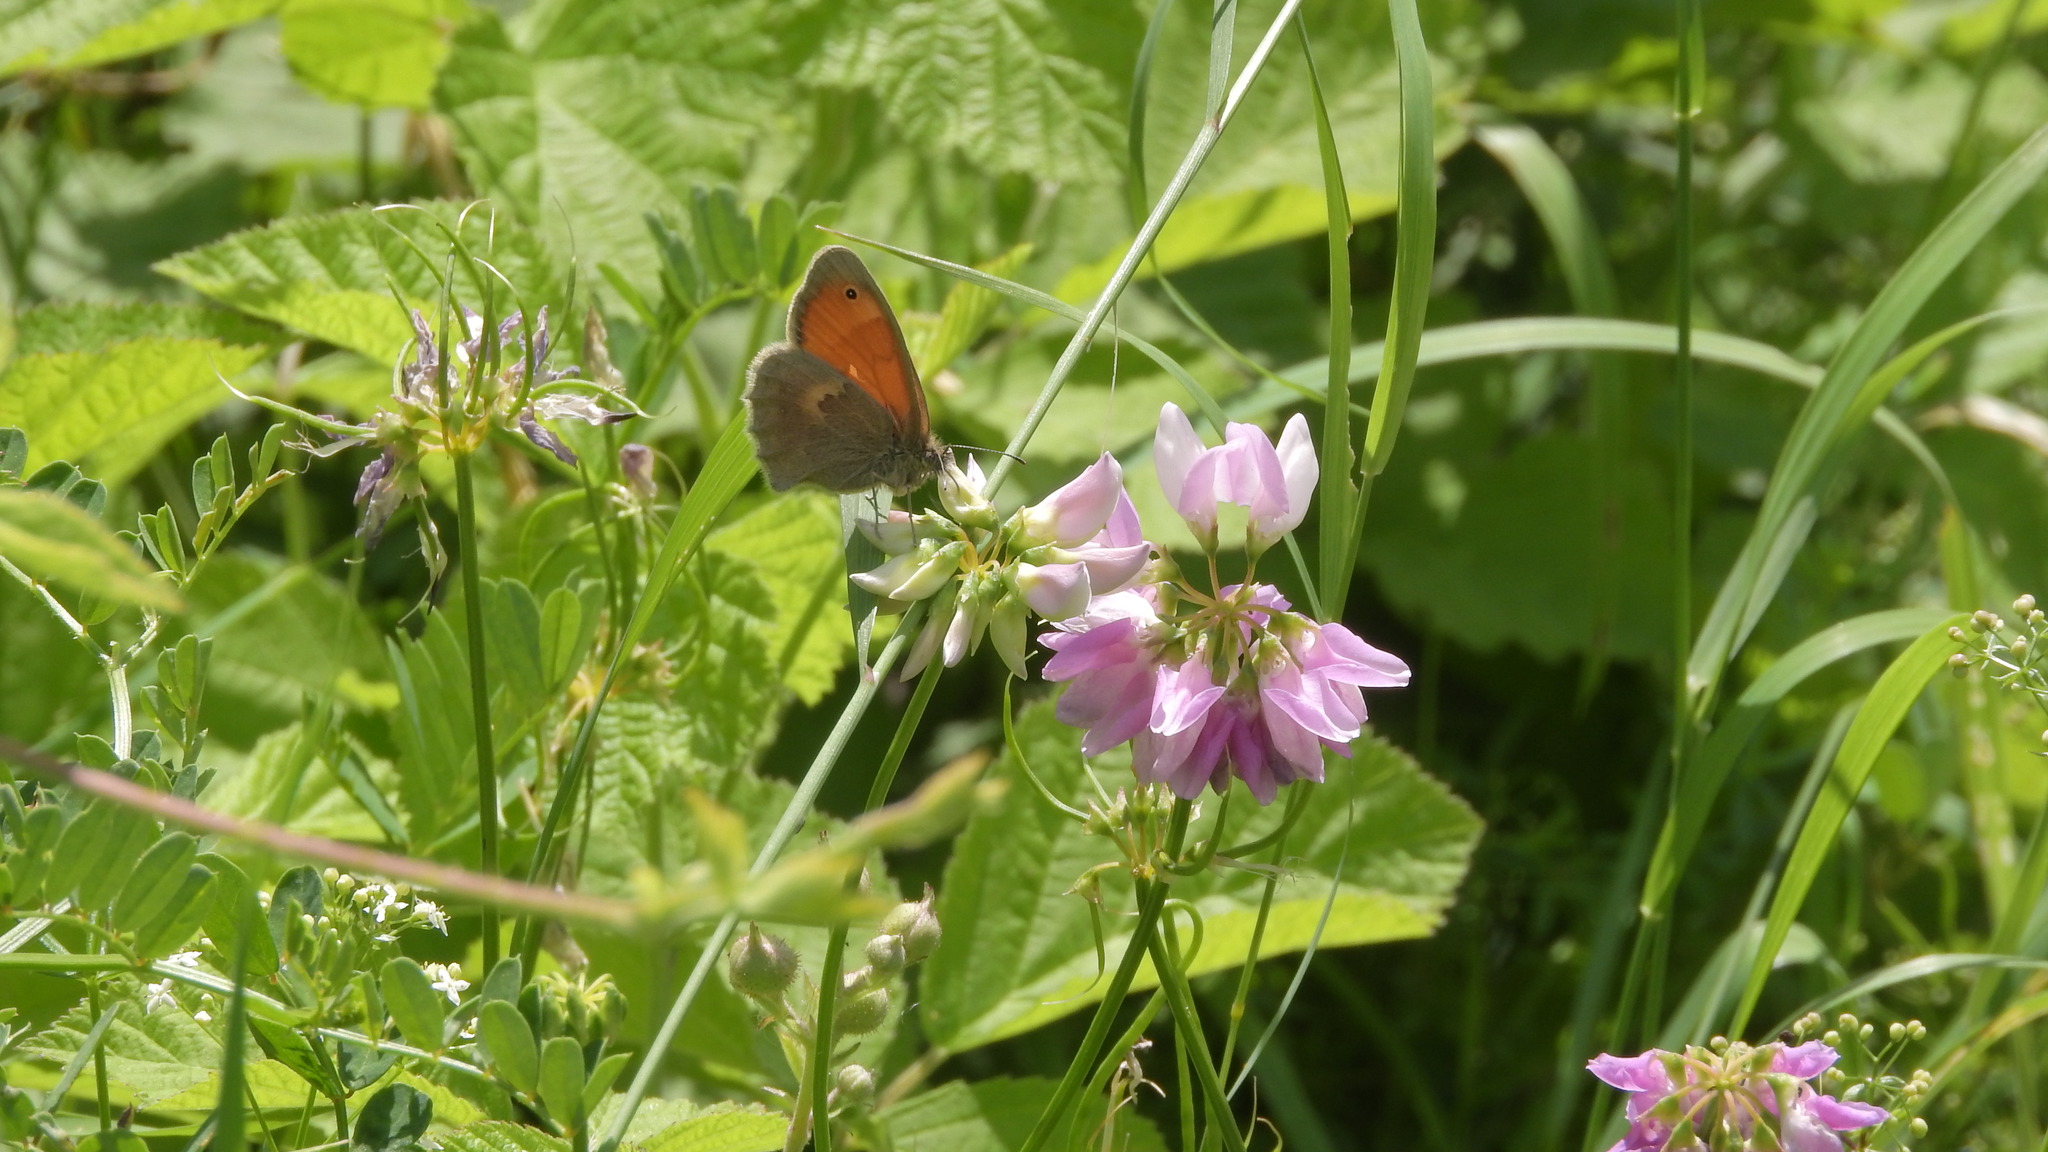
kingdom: Animalia
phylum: Arthropoda
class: Insecta
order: Lepidoptera
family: Nymphalidae
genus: Coenonympha
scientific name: Coenonympha pamphilus
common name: Small heath
